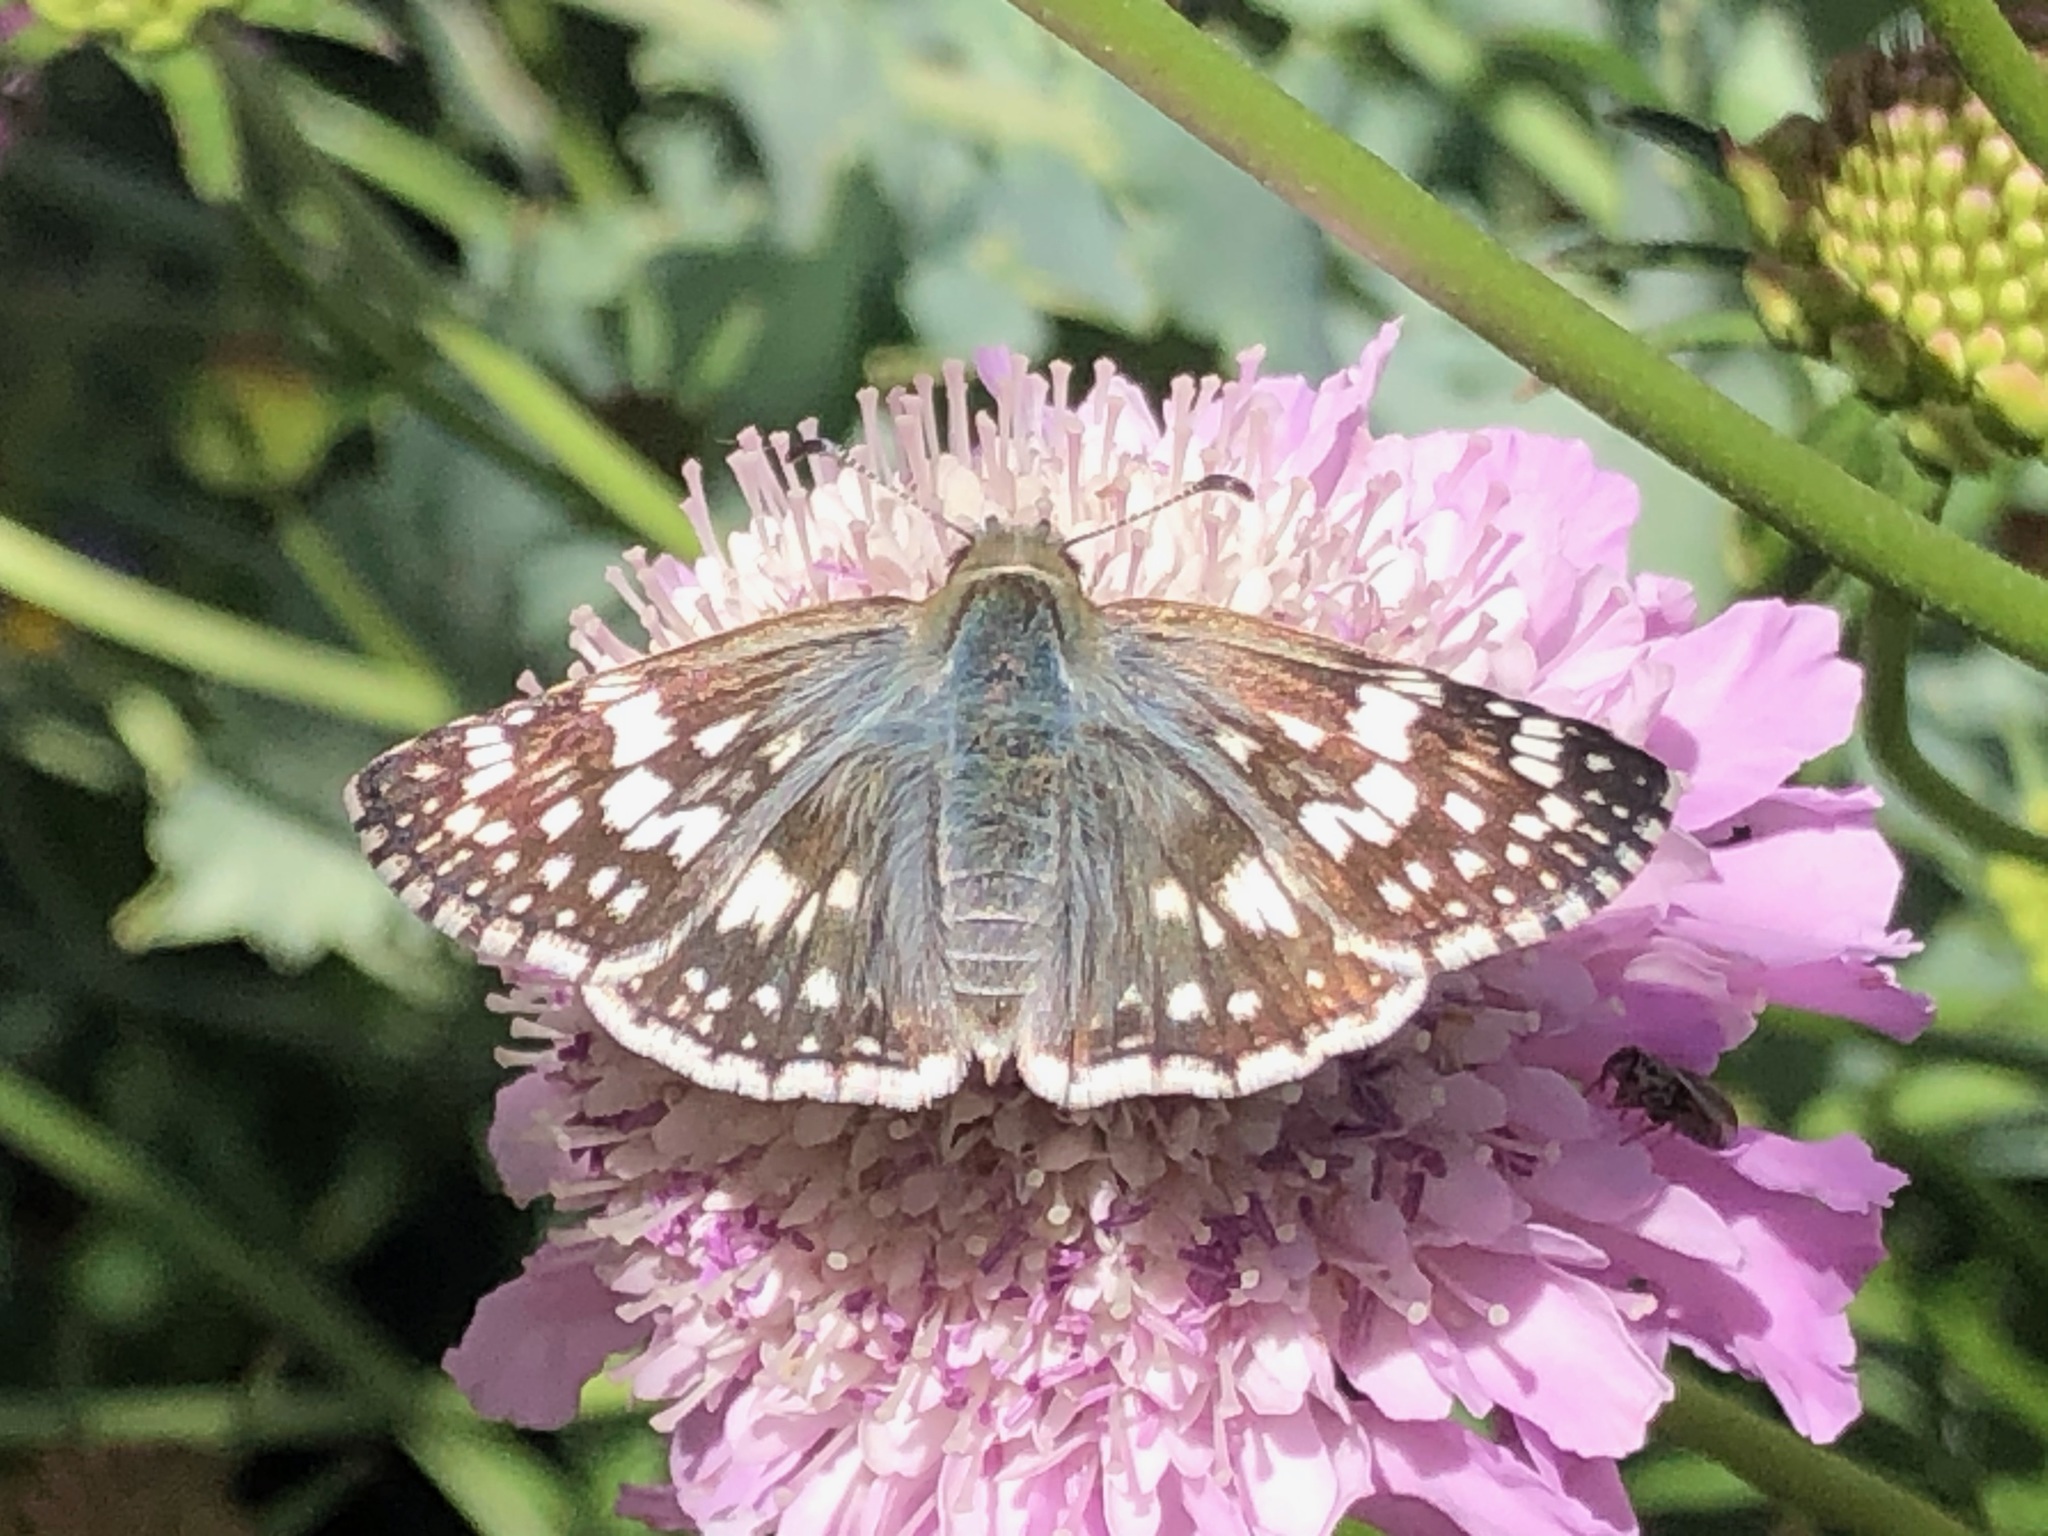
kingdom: Animalia
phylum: Arthropoda
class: Insecta
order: Lepidoptera
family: Hesperiidae
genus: Burnsius
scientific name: Burnsius communis
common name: Common checkered-skipper
